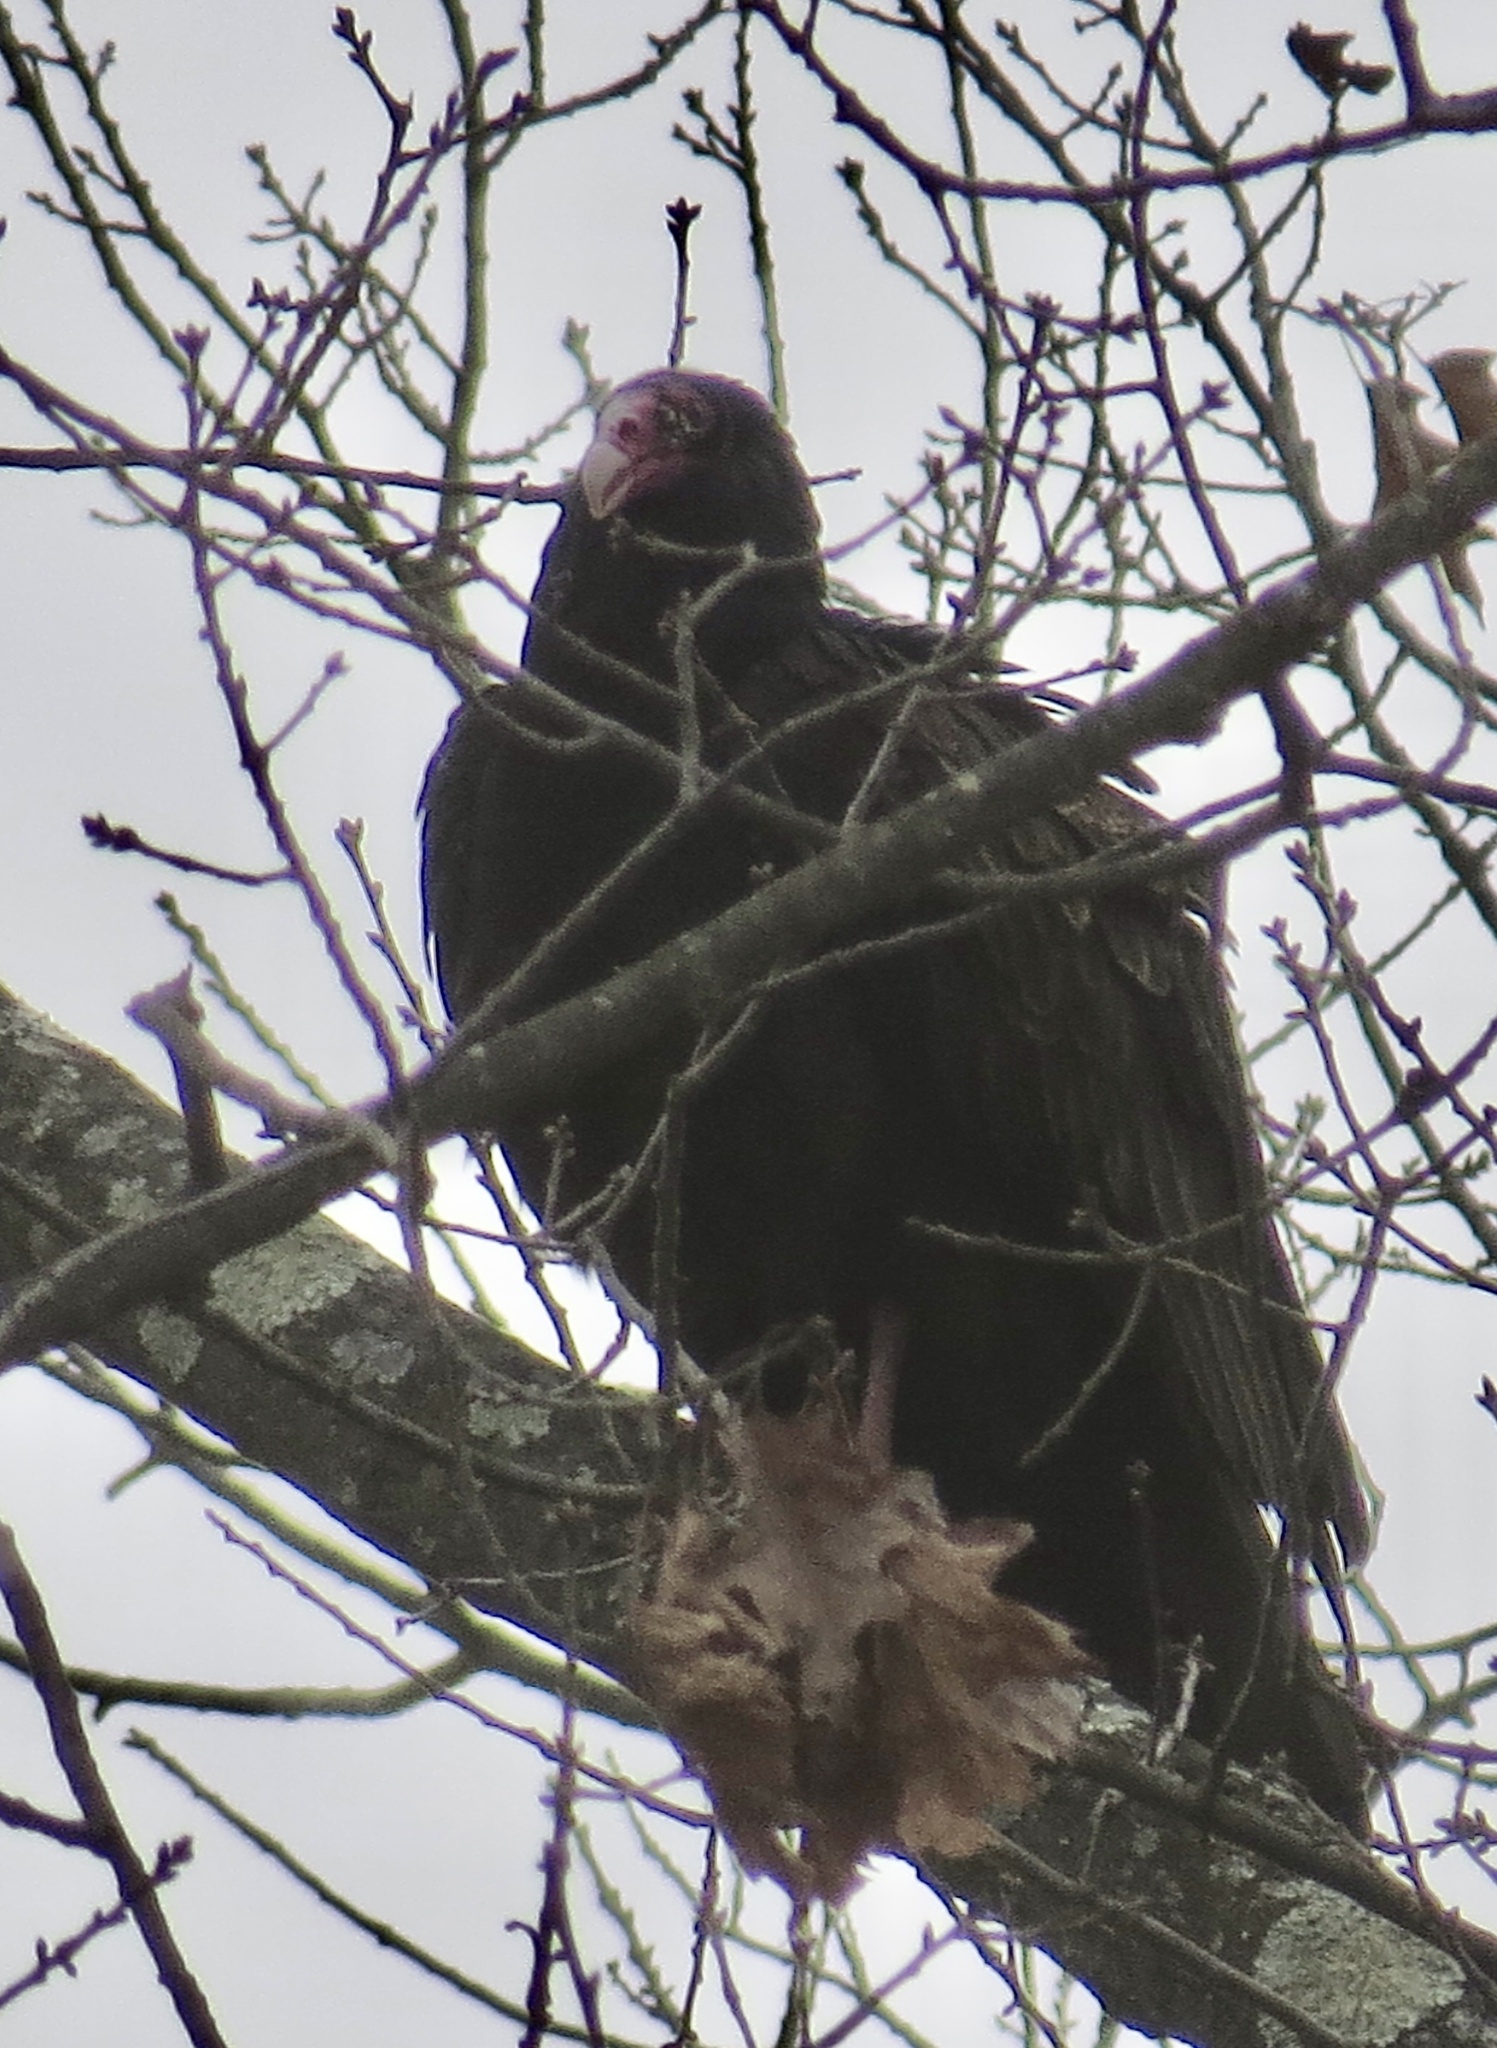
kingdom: Animalia
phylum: Chordata
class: Aves
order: Accipitriformes
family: Cathartidae
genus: Cathartes
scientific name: Cathartes aura
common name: Turkey vulture
